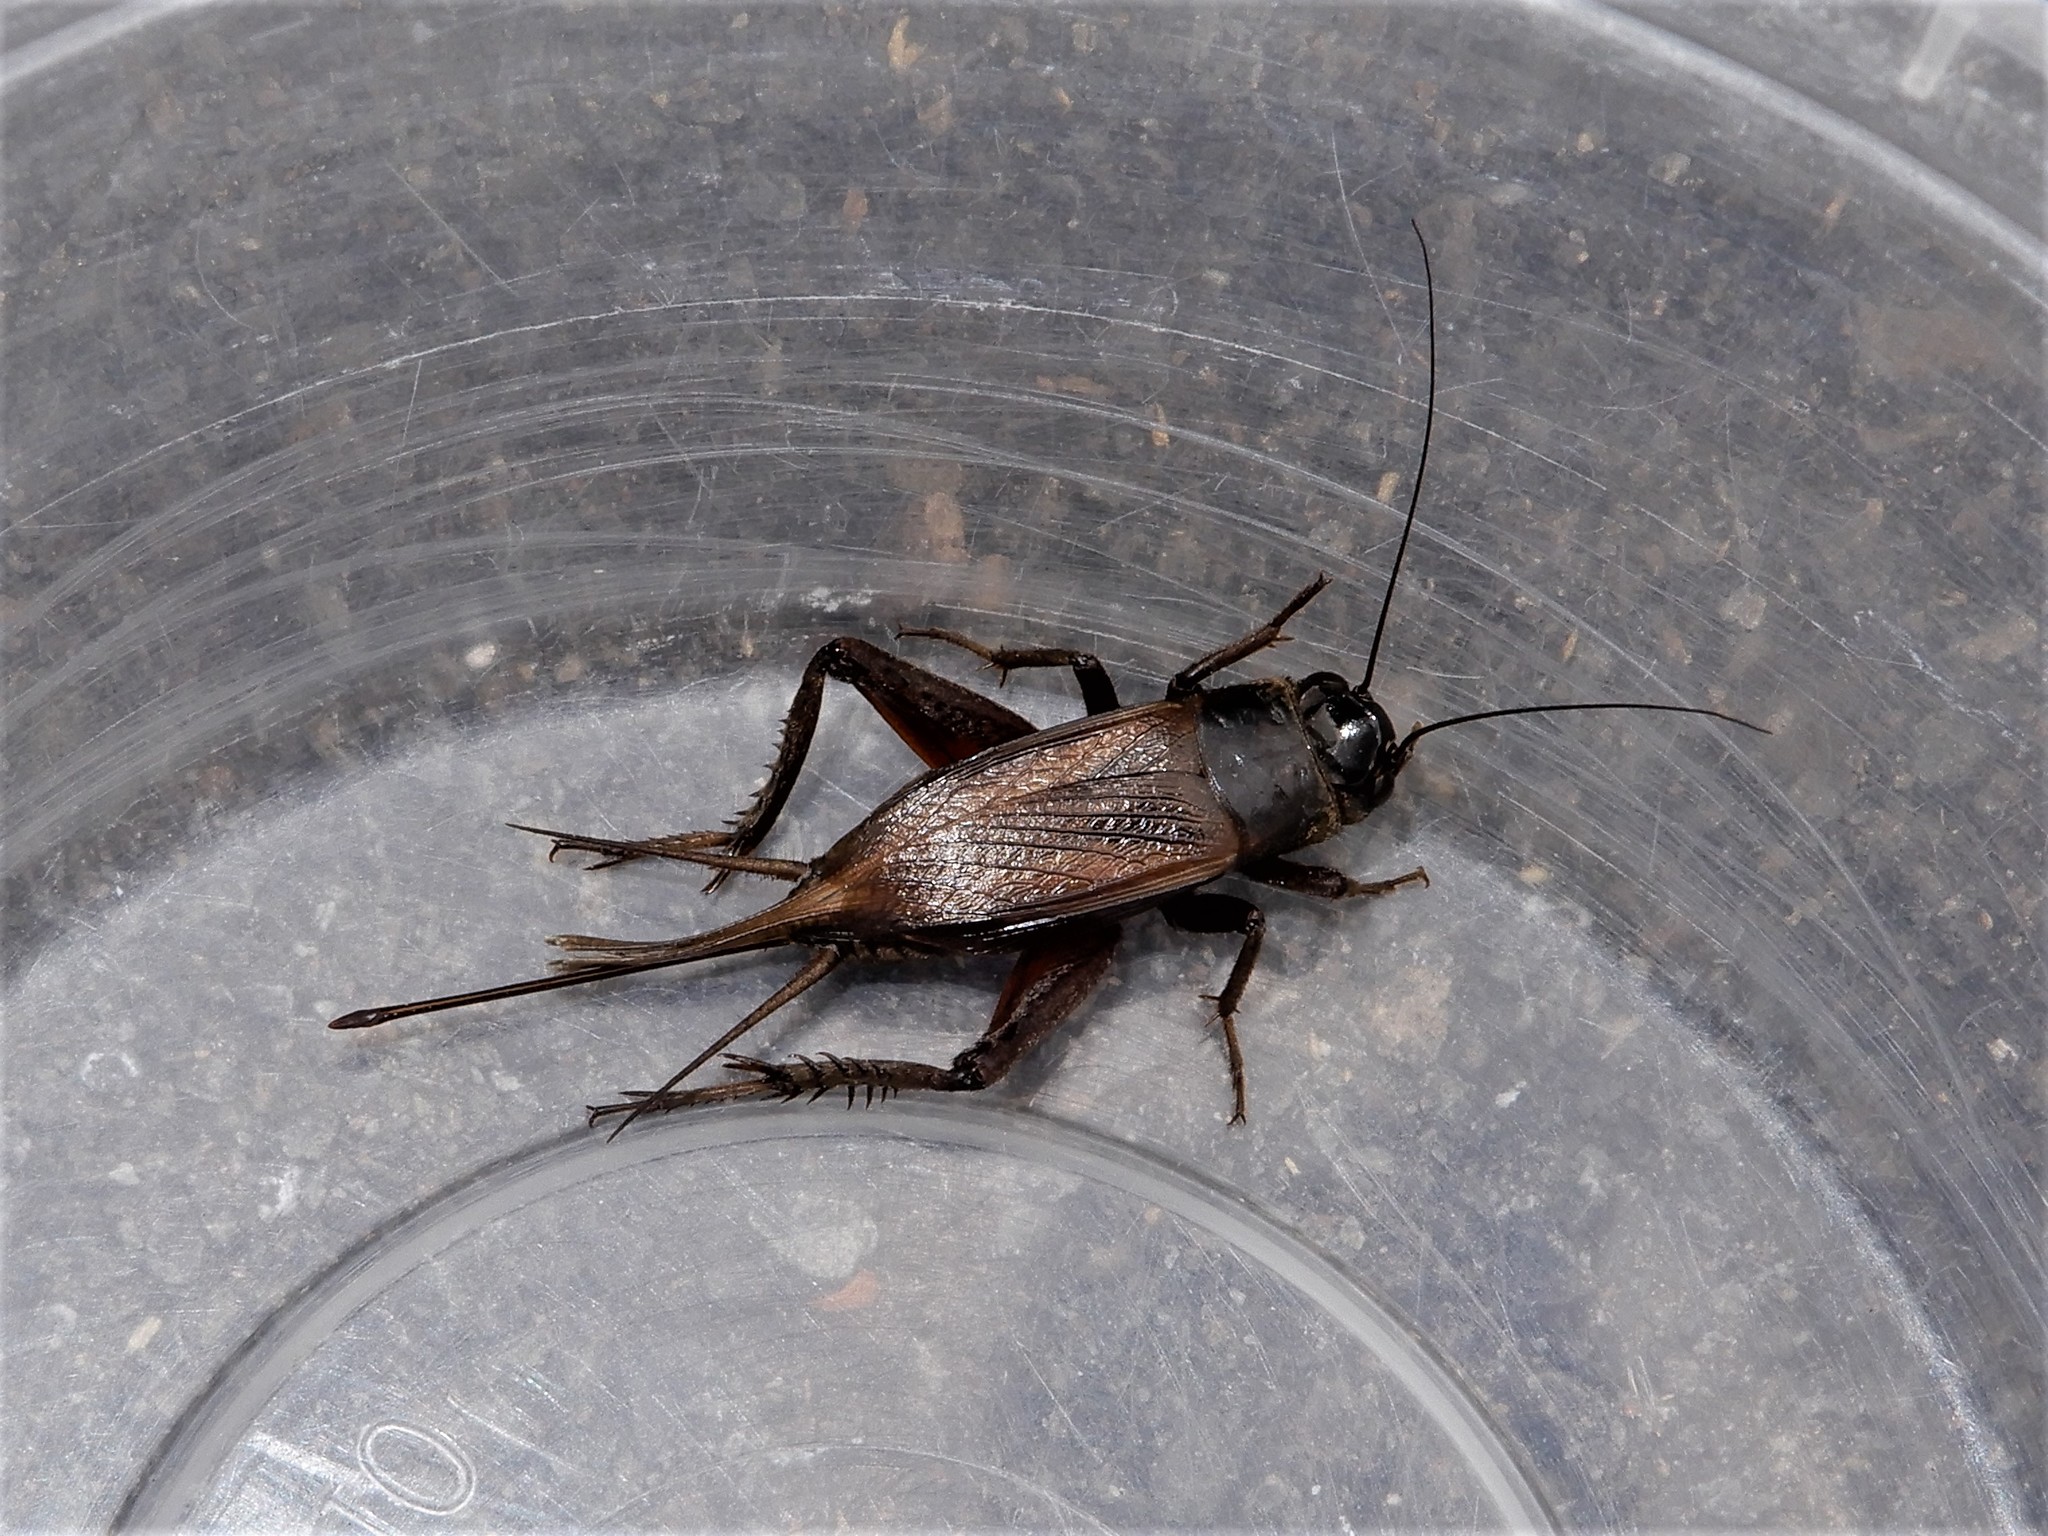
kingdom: Animalia
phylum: Arthropoda
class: Insecta
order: Orthoptera
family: Gryllidae
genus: Teleogryllus
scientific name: Teleogryllus commodus
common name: Black field cricket
